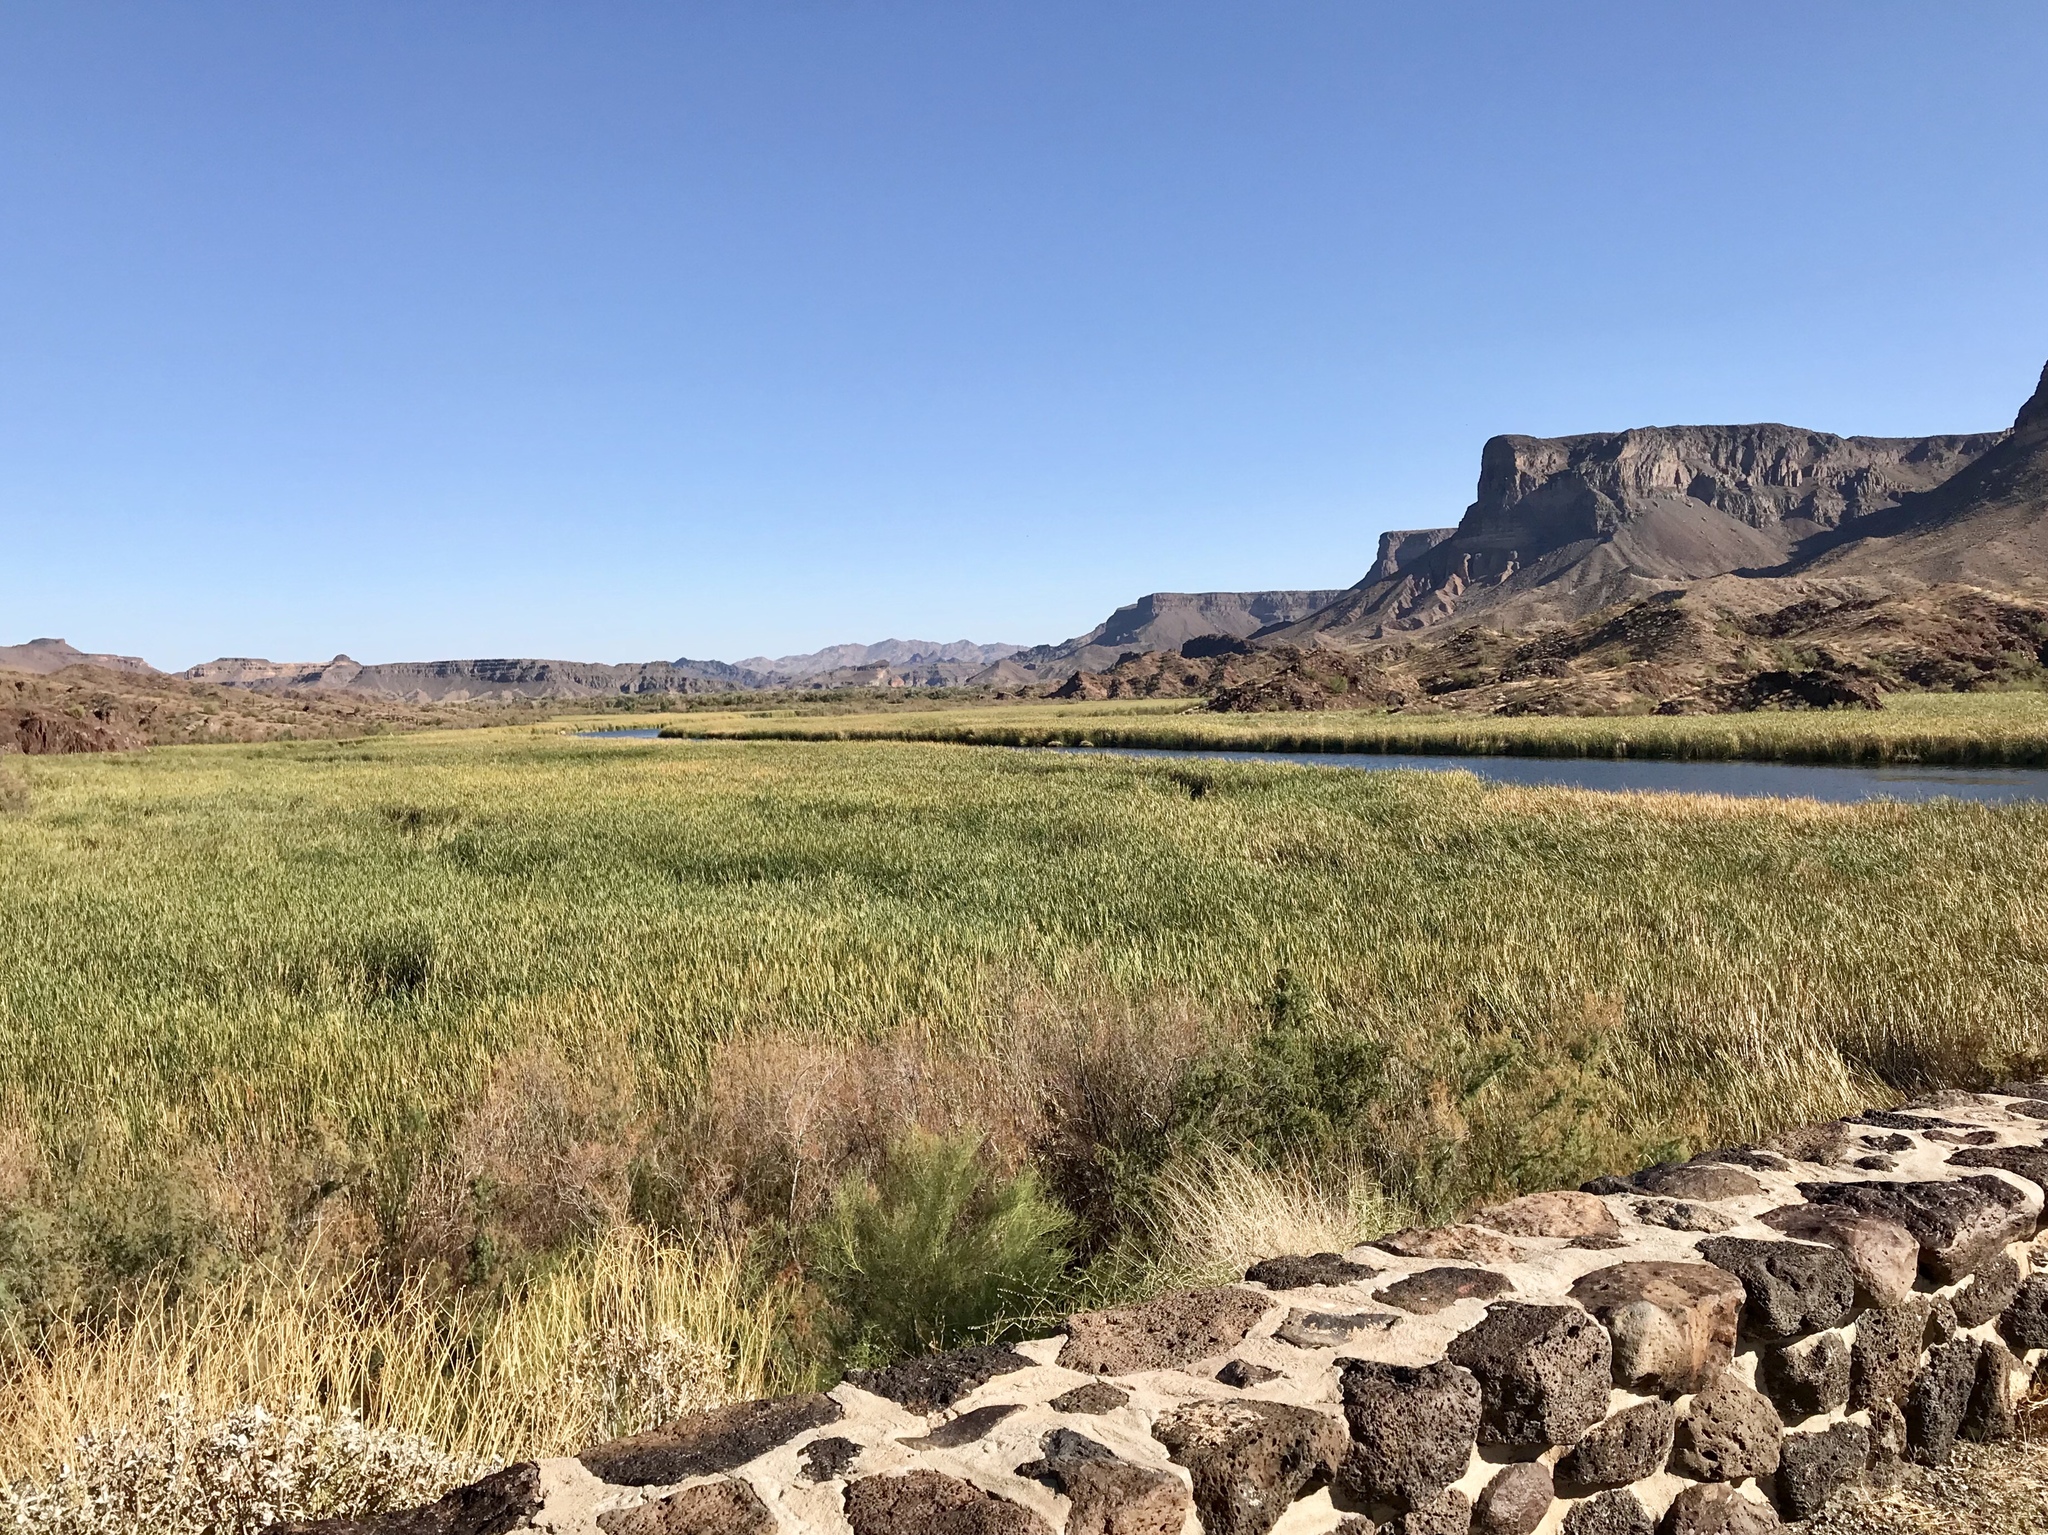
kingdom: Plantae
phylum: Tracheophyta
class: Liliopsida
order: Poales
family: Poaceae
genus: Phragmites
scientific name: Phragmites australis
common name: Common reed
